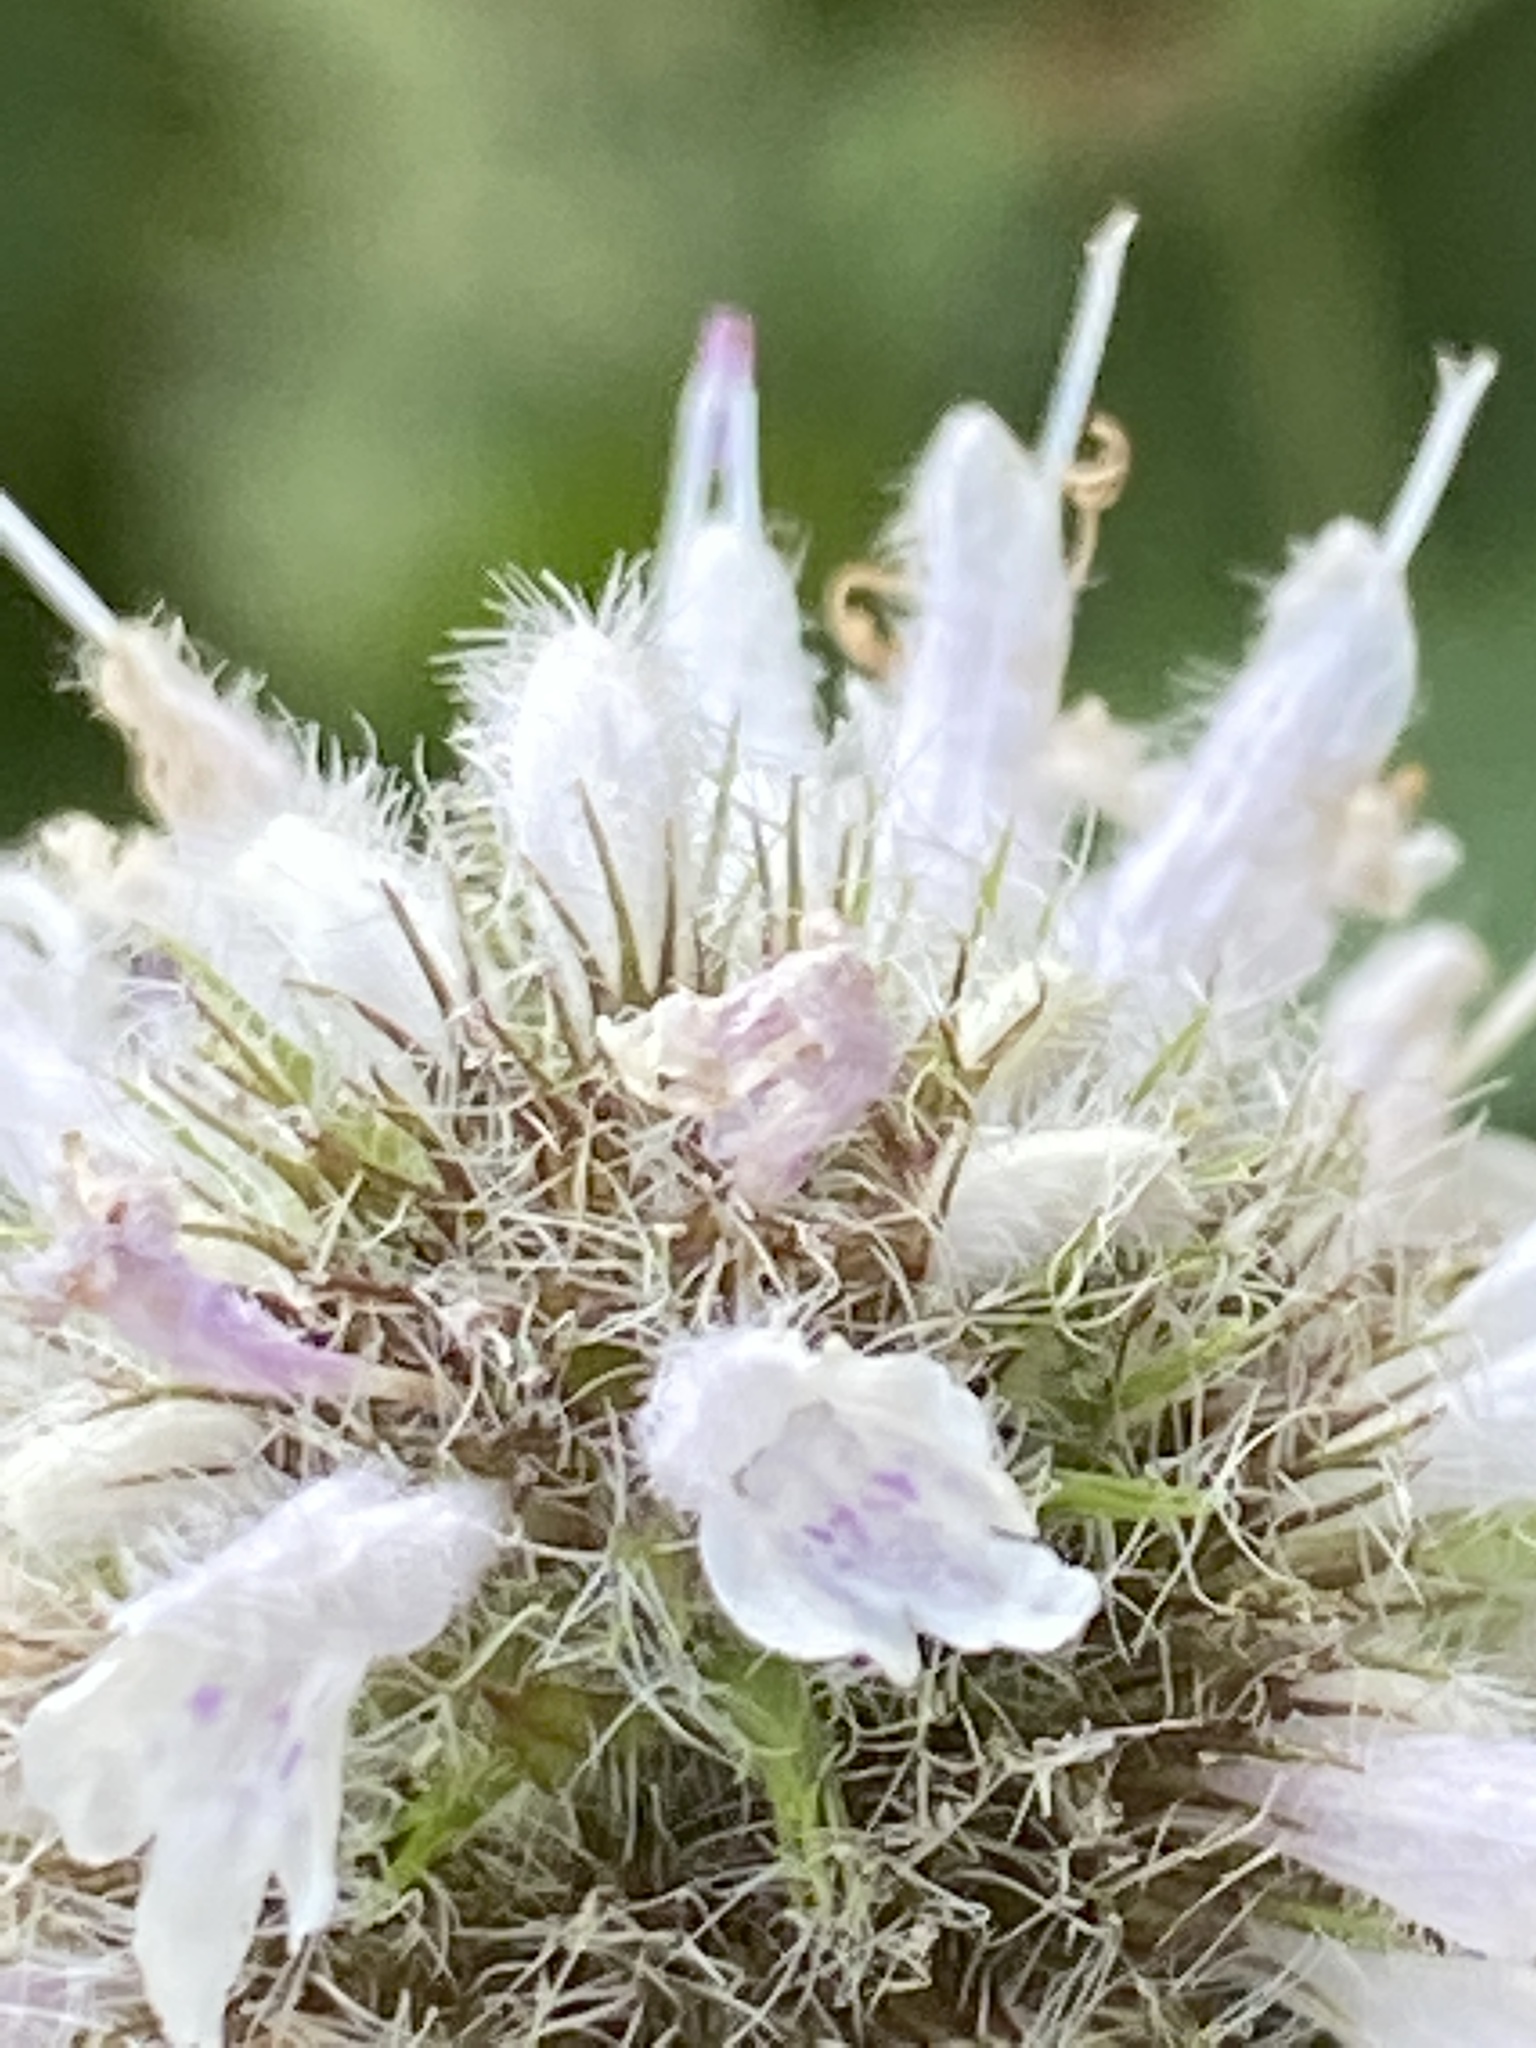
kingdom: Plantae
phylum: Tracheophyta
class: Magnoliopsida
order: Lamiales
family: Lamiaceae
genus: Blephilia
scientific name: Blephilia hirsuta
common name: Hairy blephilia
